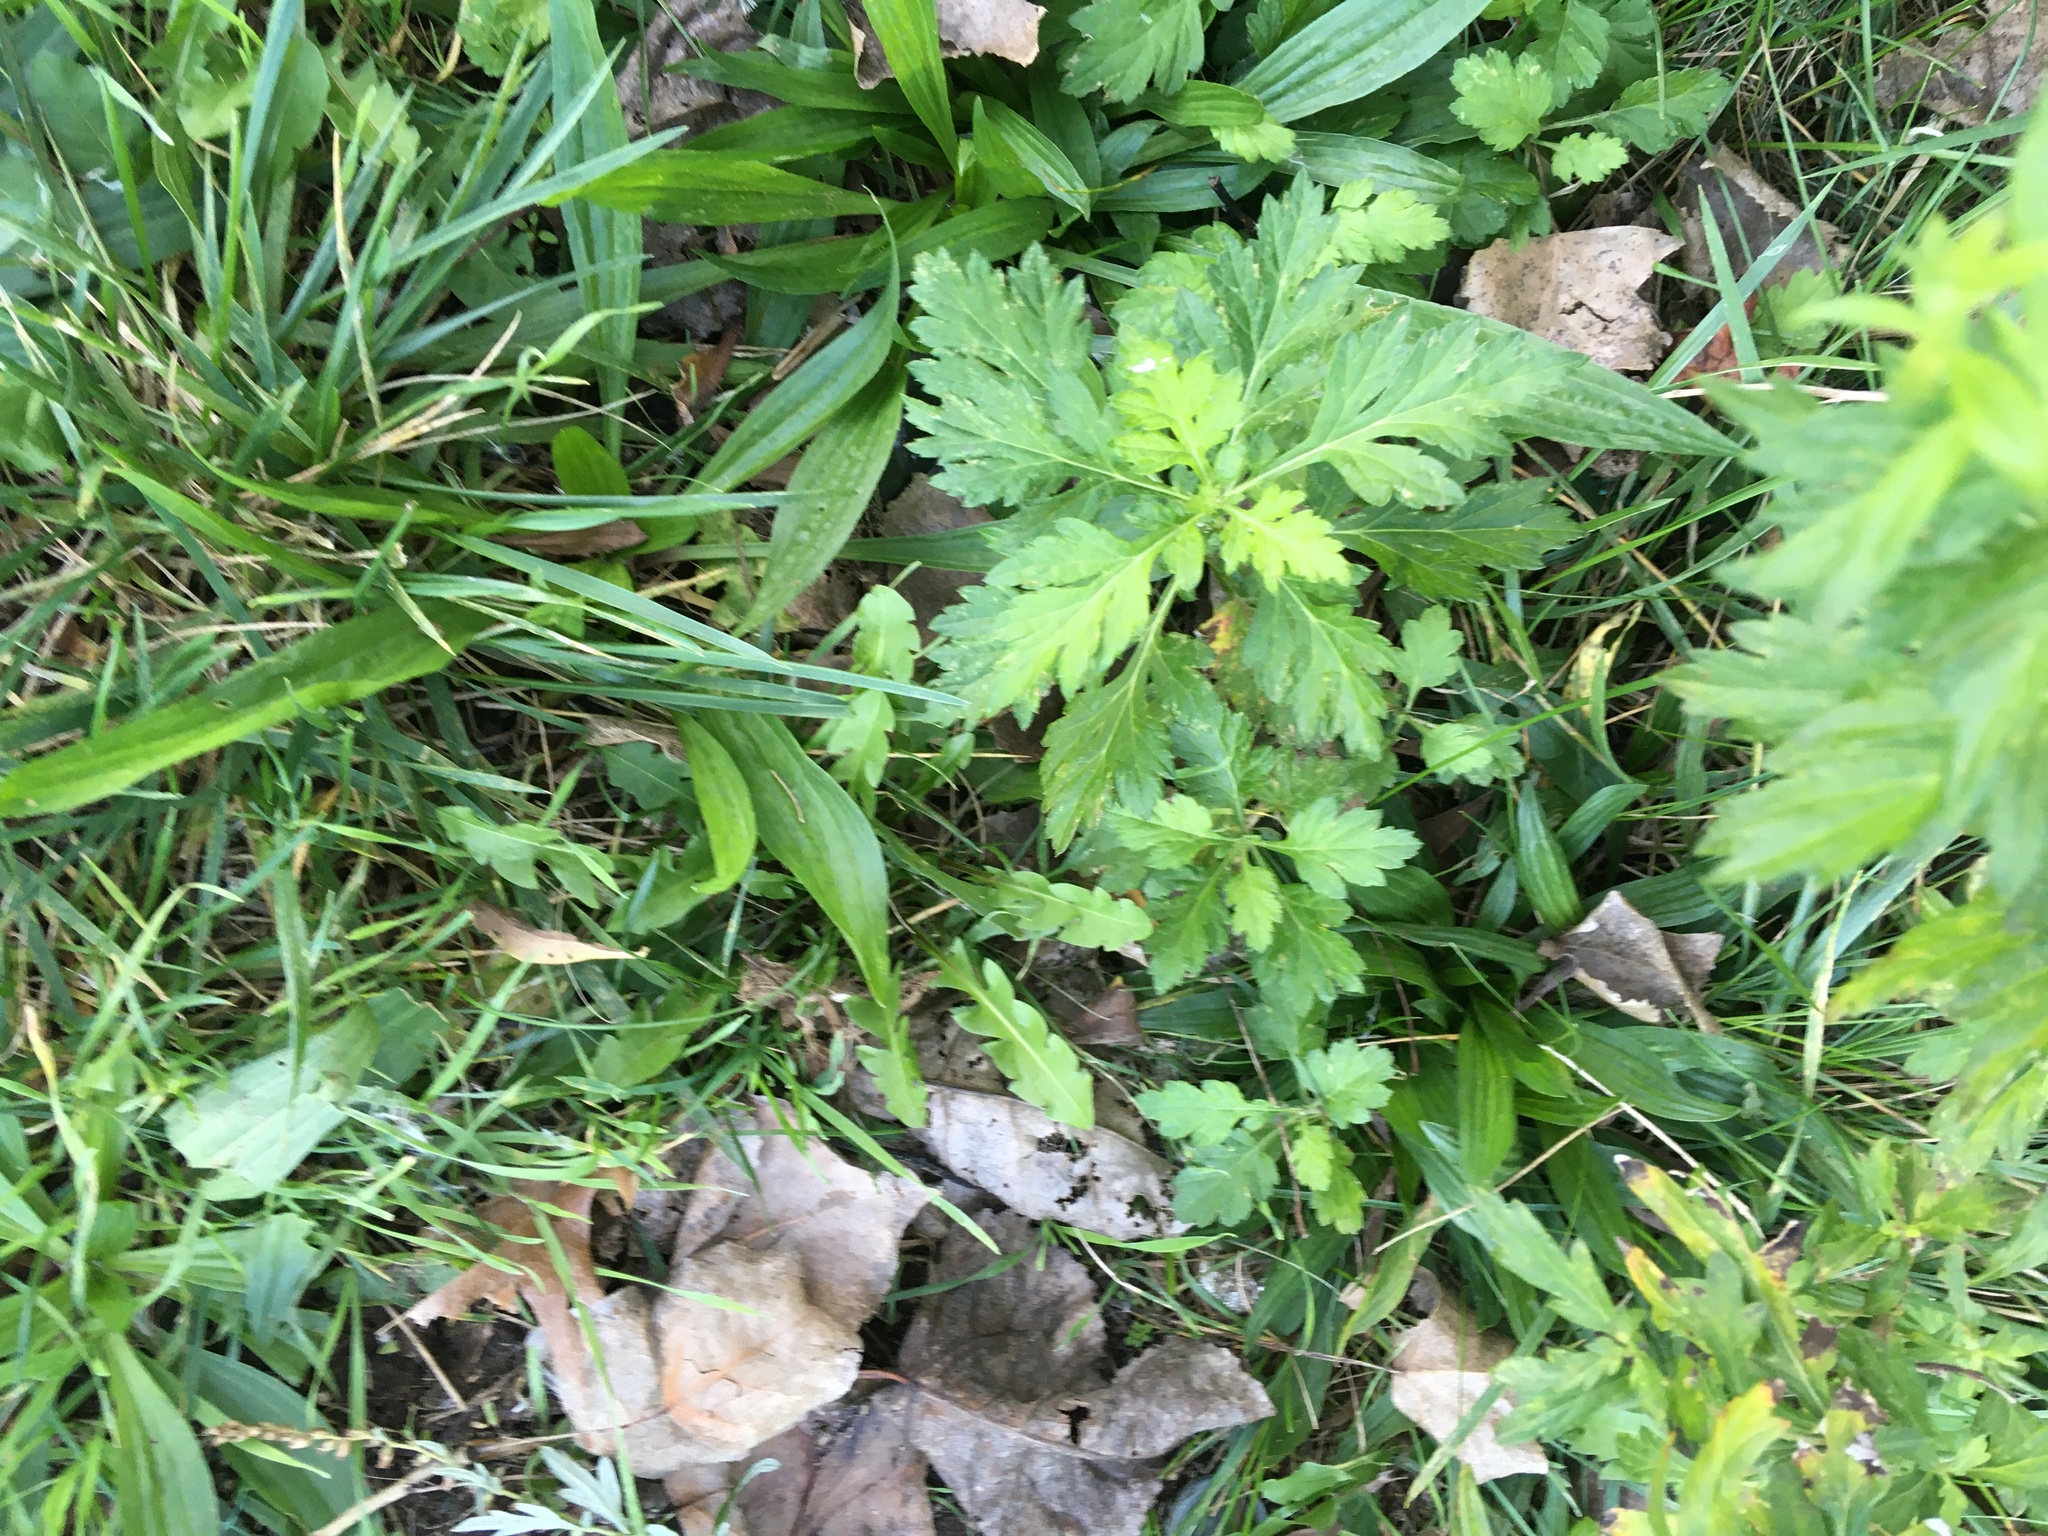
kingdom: Plantae
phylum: Tracheophyta
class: Magnoliopsida
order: Asterales
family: Asteraceae
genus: Artemisia
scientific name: Artemisia vulgaris
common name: Mugwort
